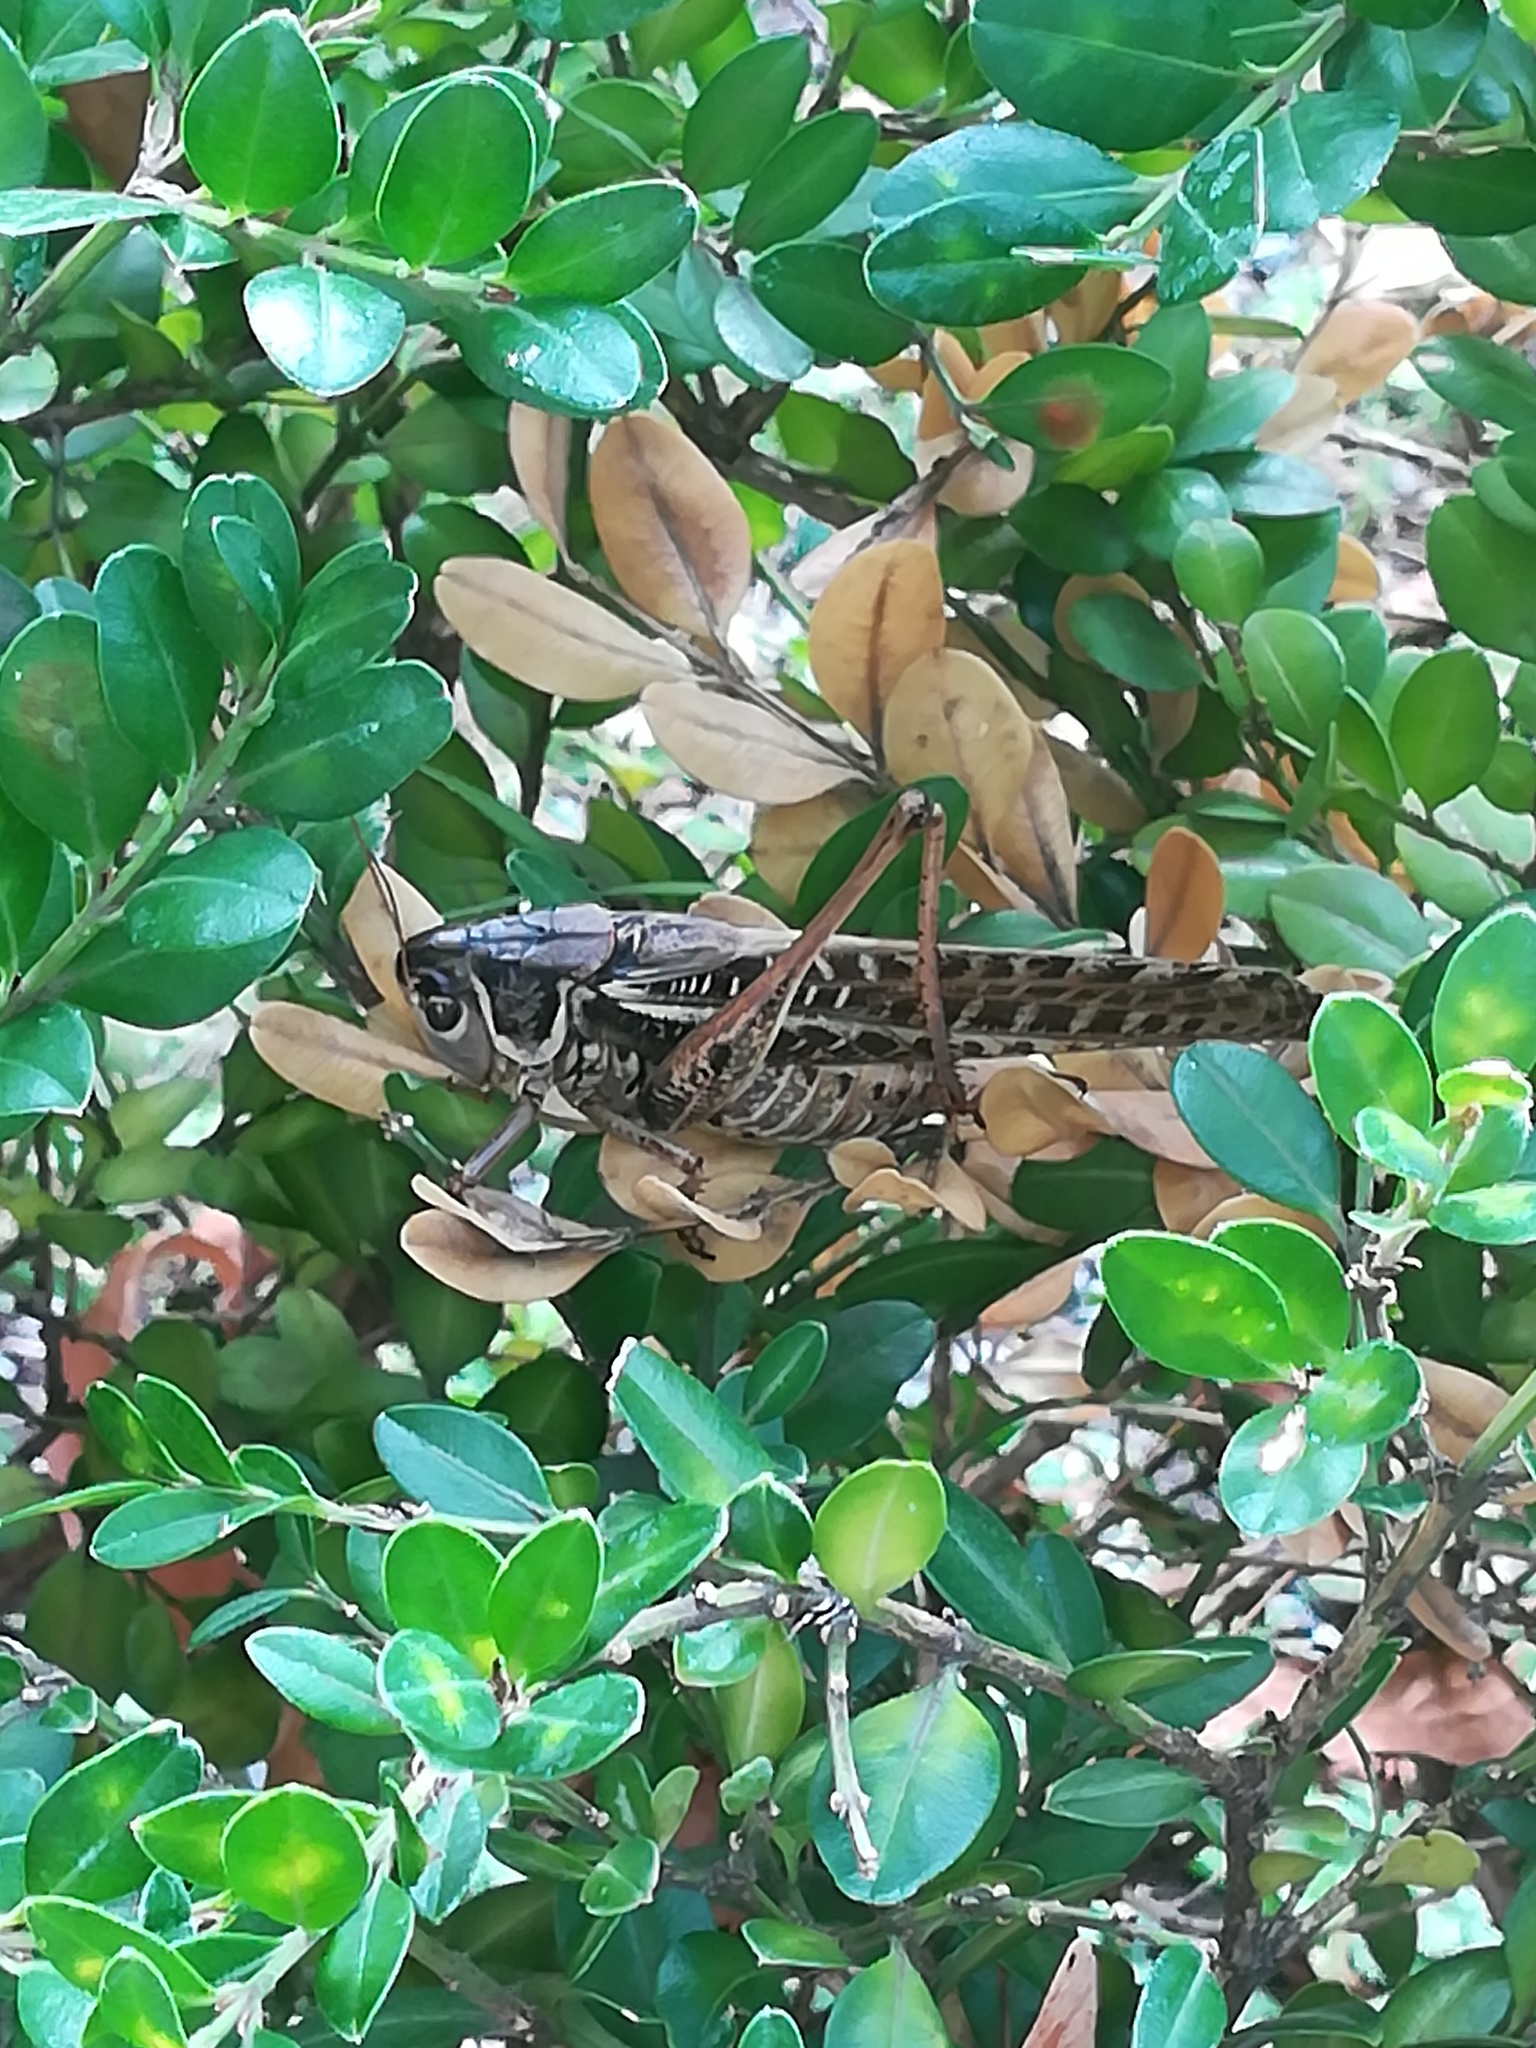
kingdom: Animalia
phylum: Arthropoda
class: Insecta
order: Orthoptera
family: Tettigoniidae
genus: Decticus
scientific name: Decticus albifrons
